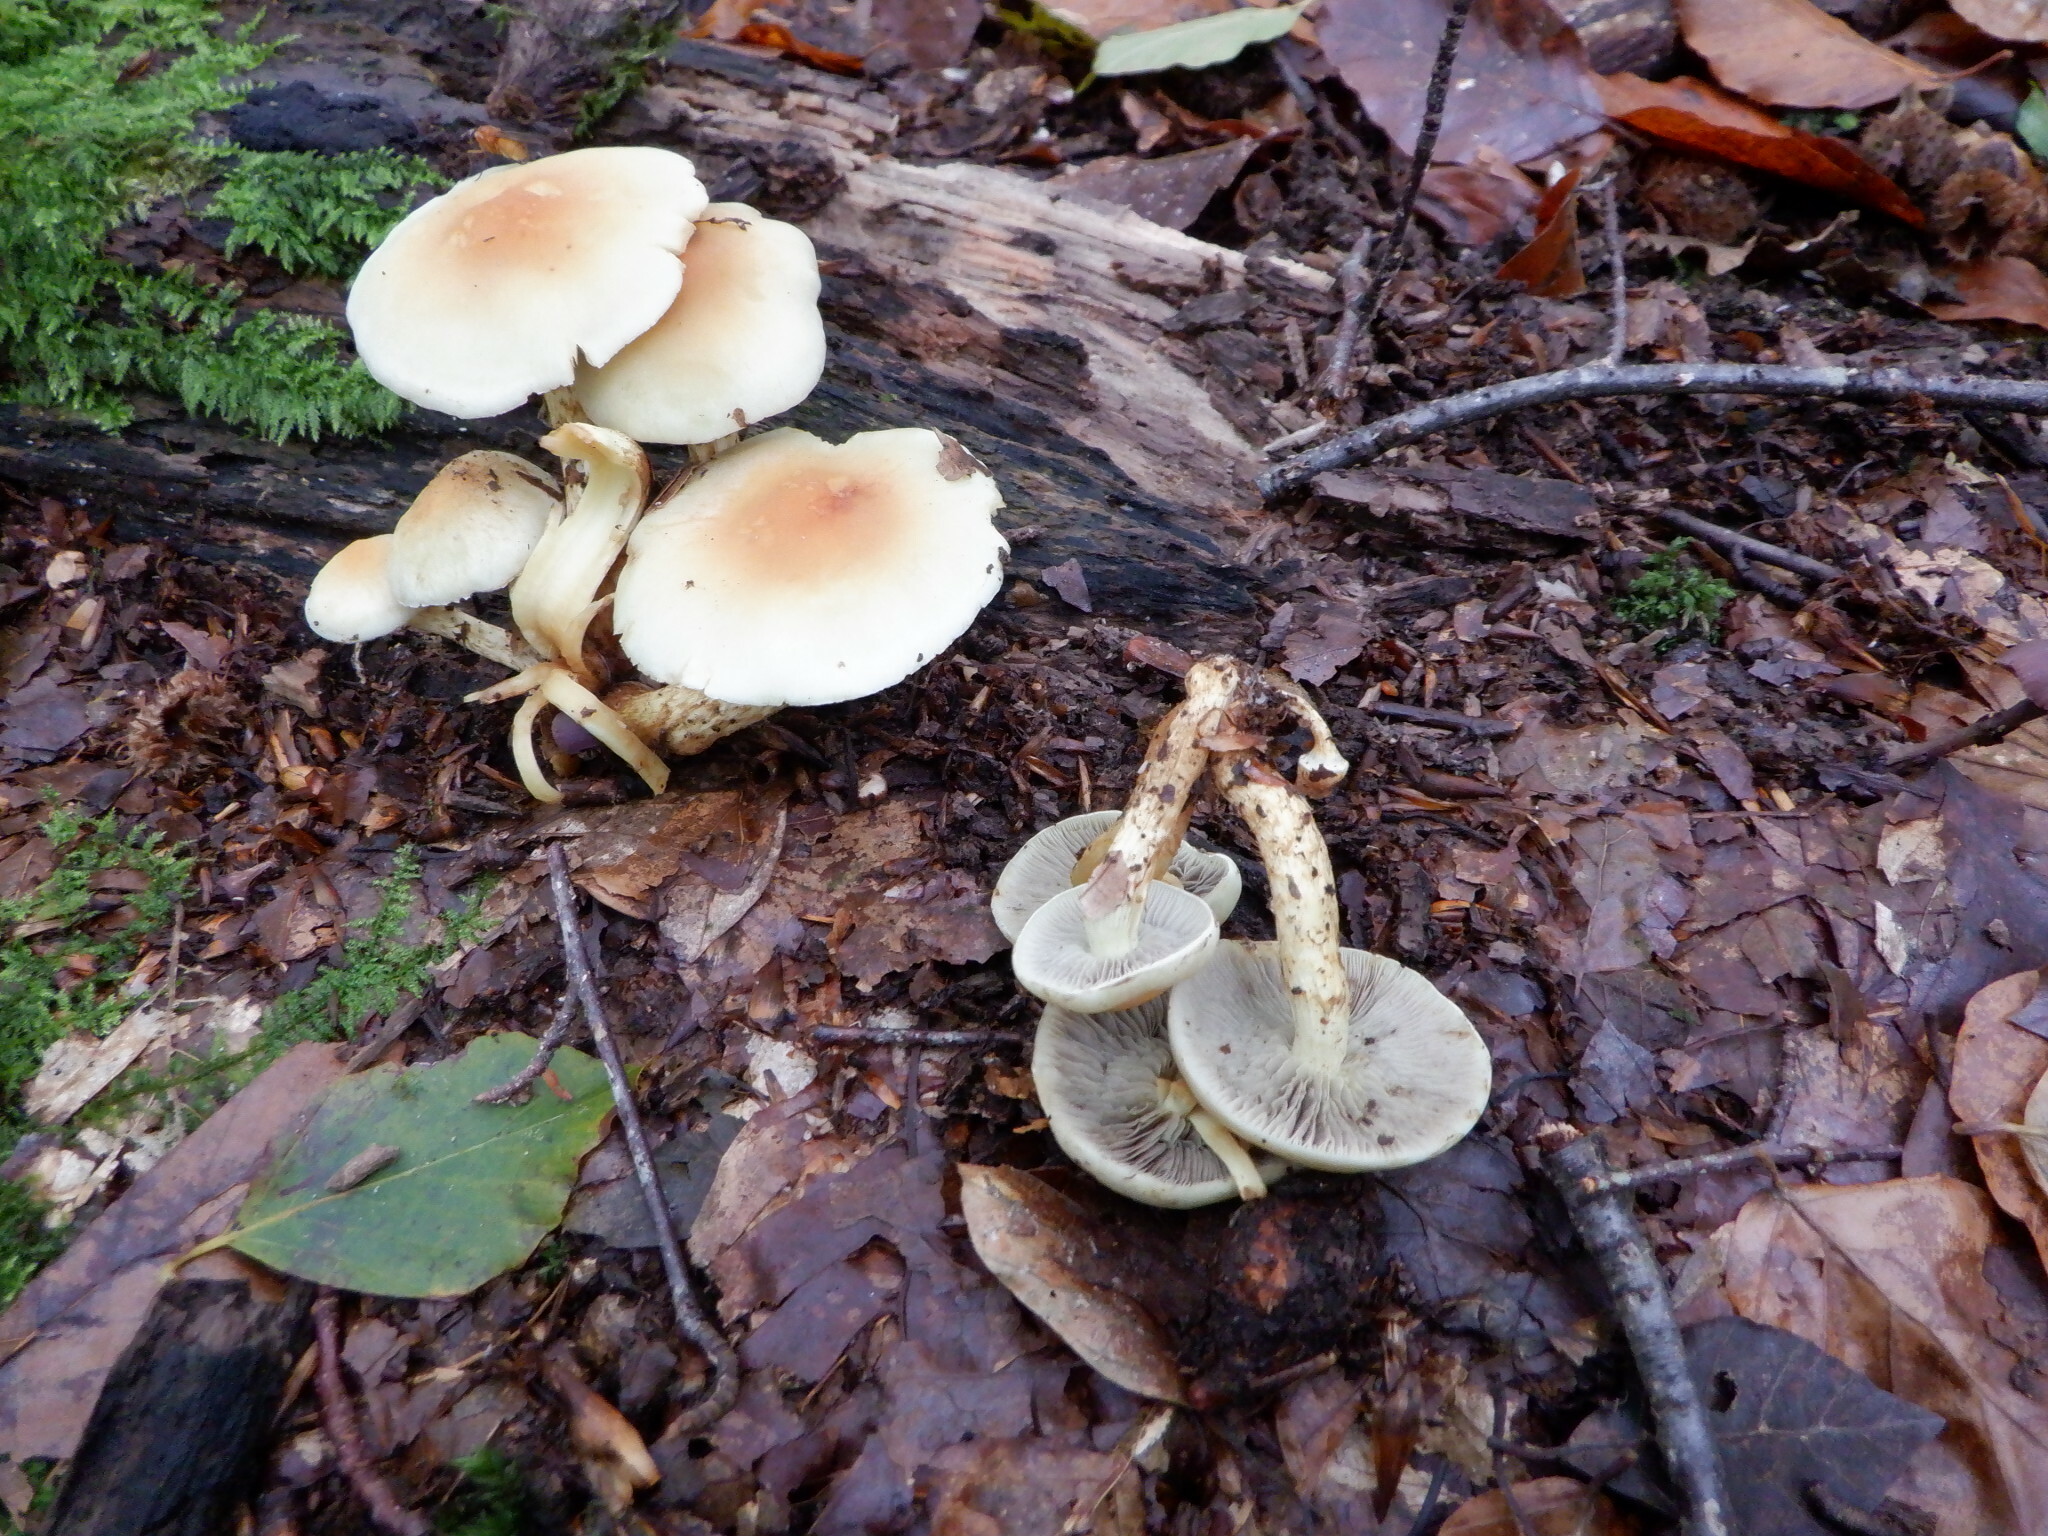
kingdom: Fungi
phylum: Basidiomycota
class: Agaricomycetes
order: Agaricales
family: Strophariaceae
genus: Hypholoma
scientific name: Hypholoma fasciculare
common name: Sulphur tuft
